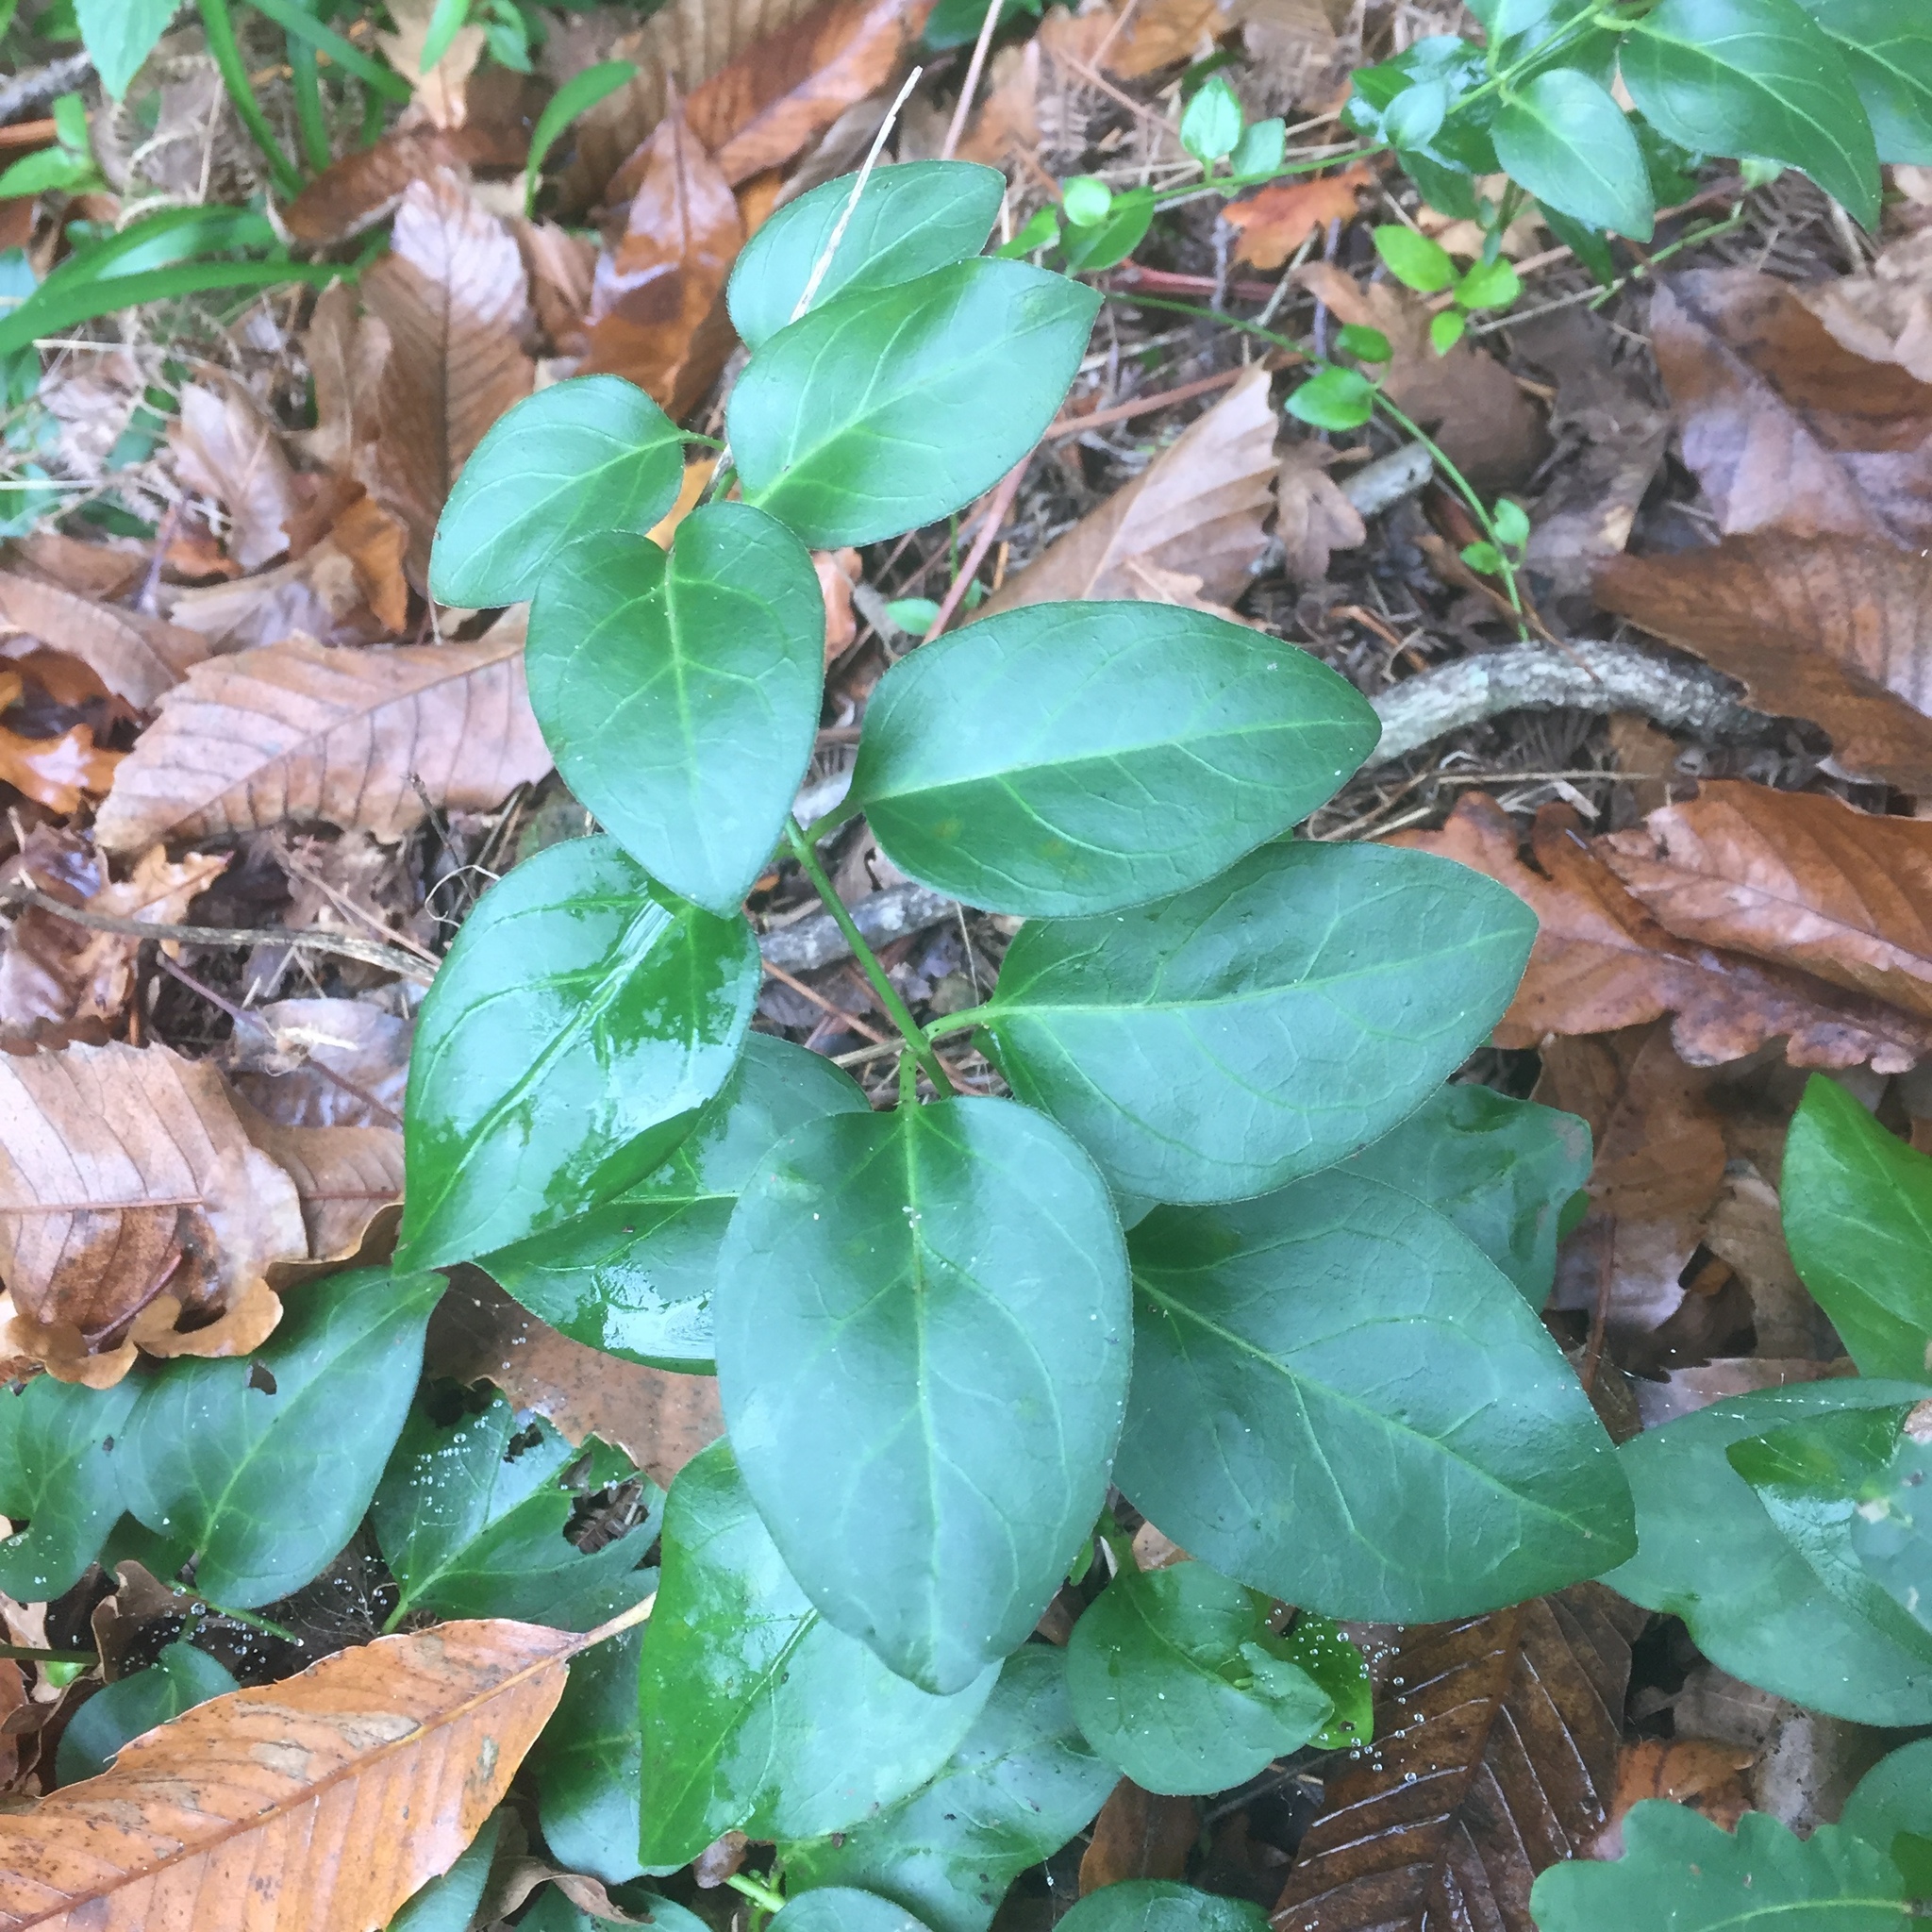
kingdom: Plantae
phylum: Tracheophyta
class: Magnoliopsida
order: Gentianales
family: Apocynaceae
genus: Vinca
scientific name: Vinca major
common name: Greater periwinkle
